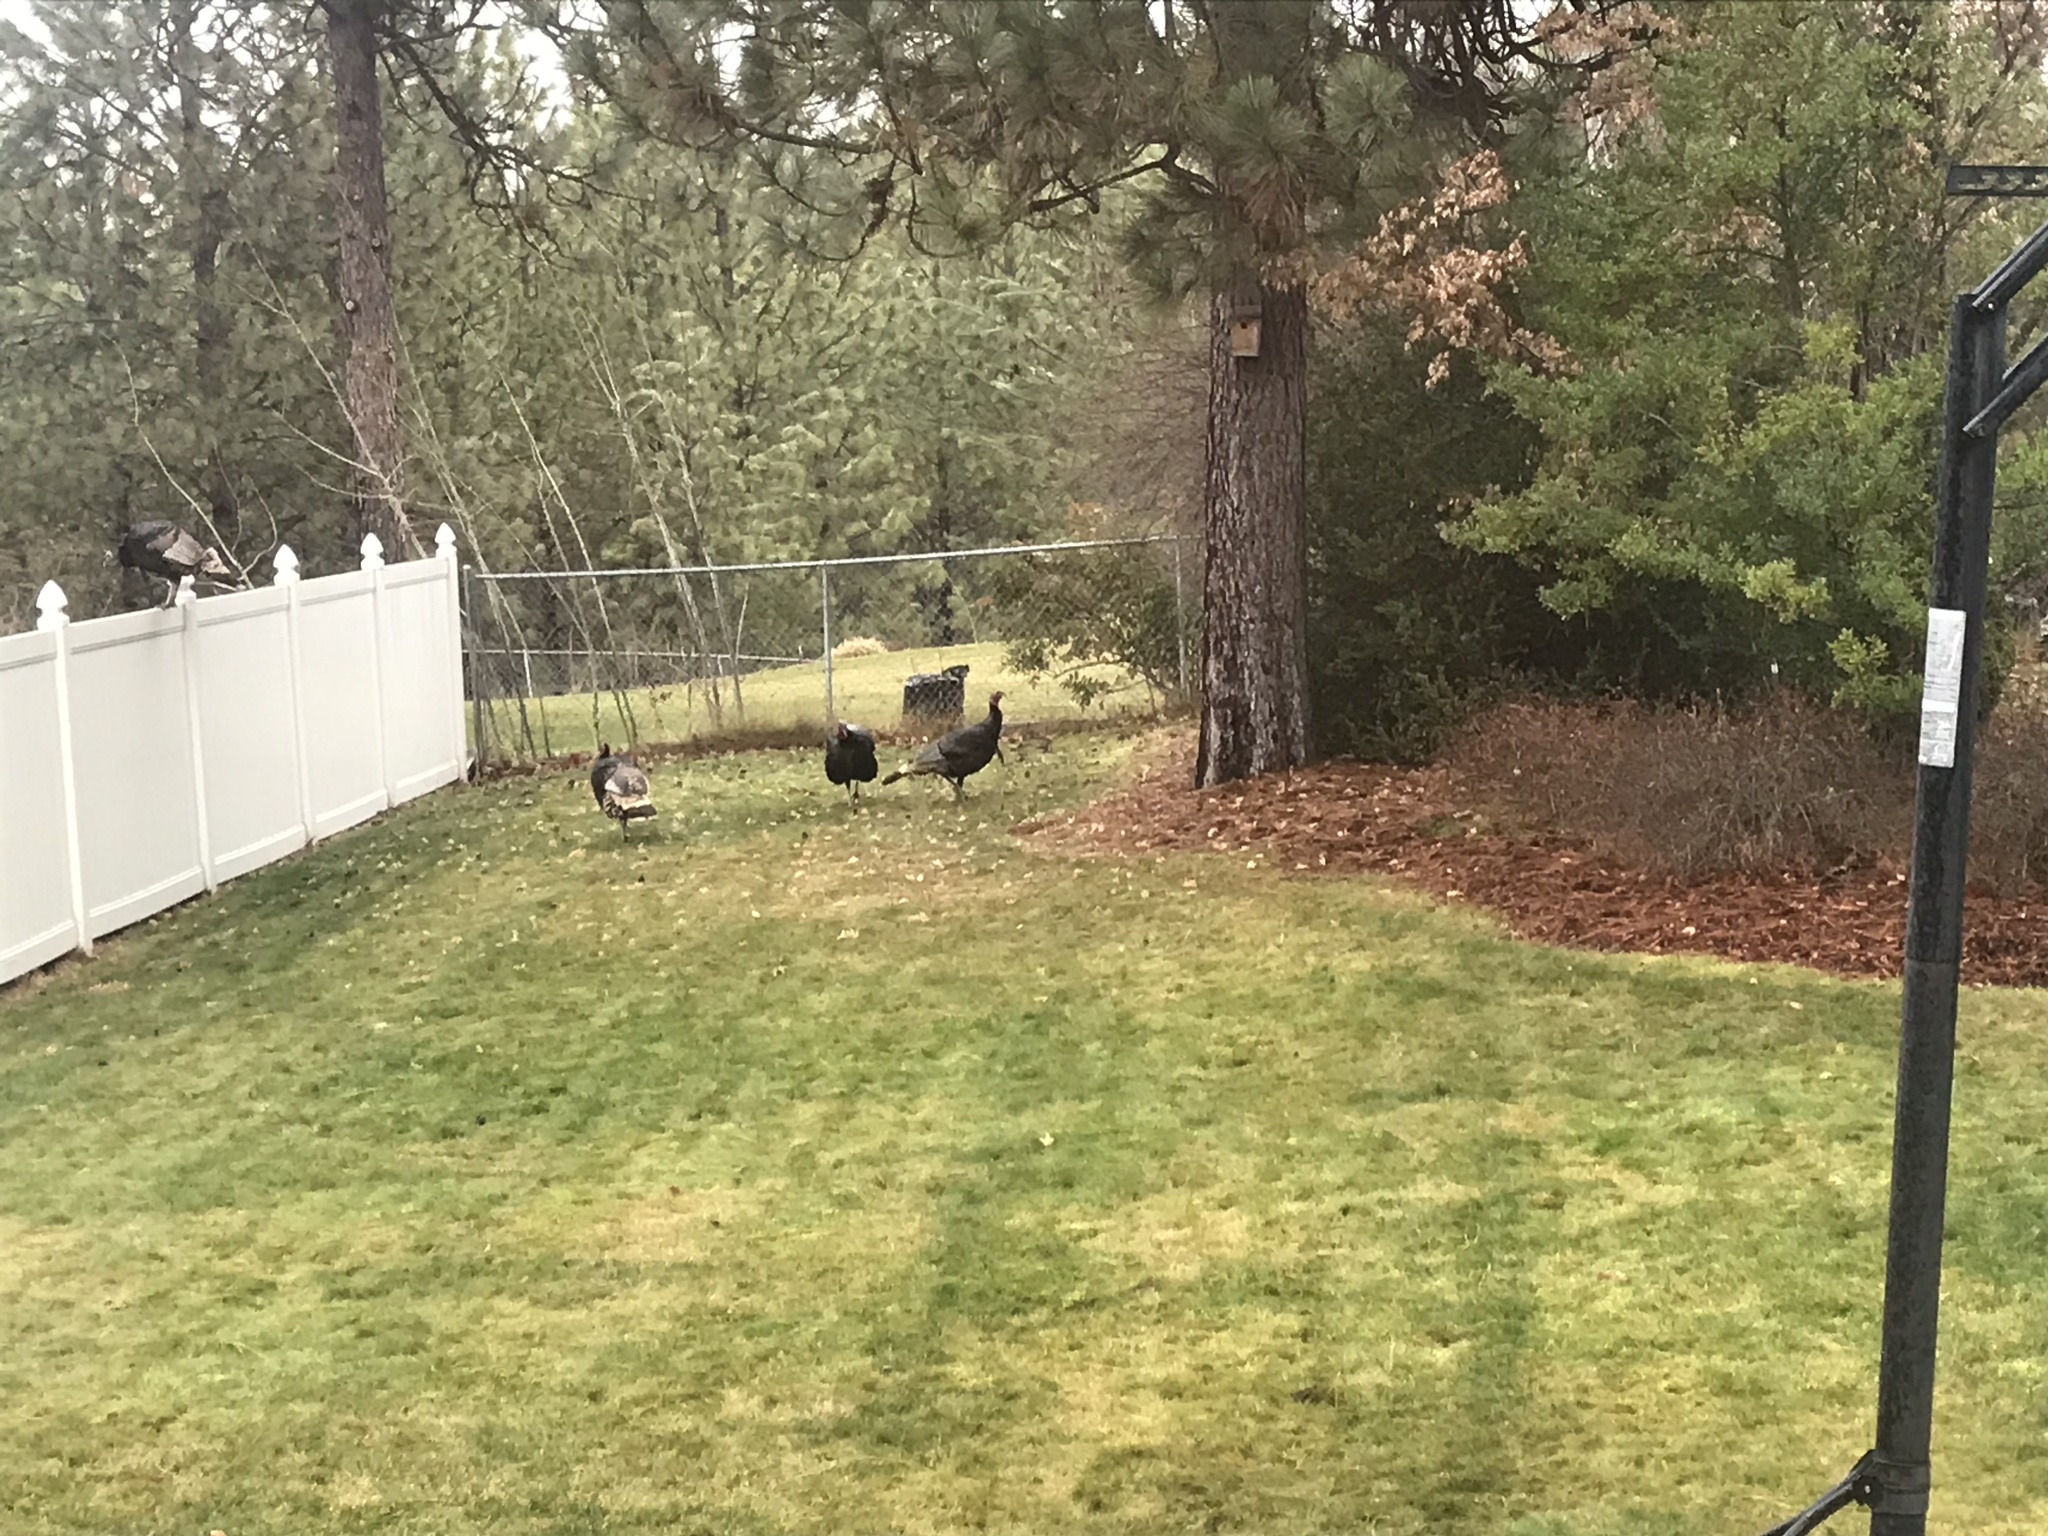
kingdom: Animalia
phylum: Chordata
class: Aves
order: Galliformes
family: Phasianidae
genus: Meleagris
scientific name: Meleagris gallopavo
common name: Wild turkey
